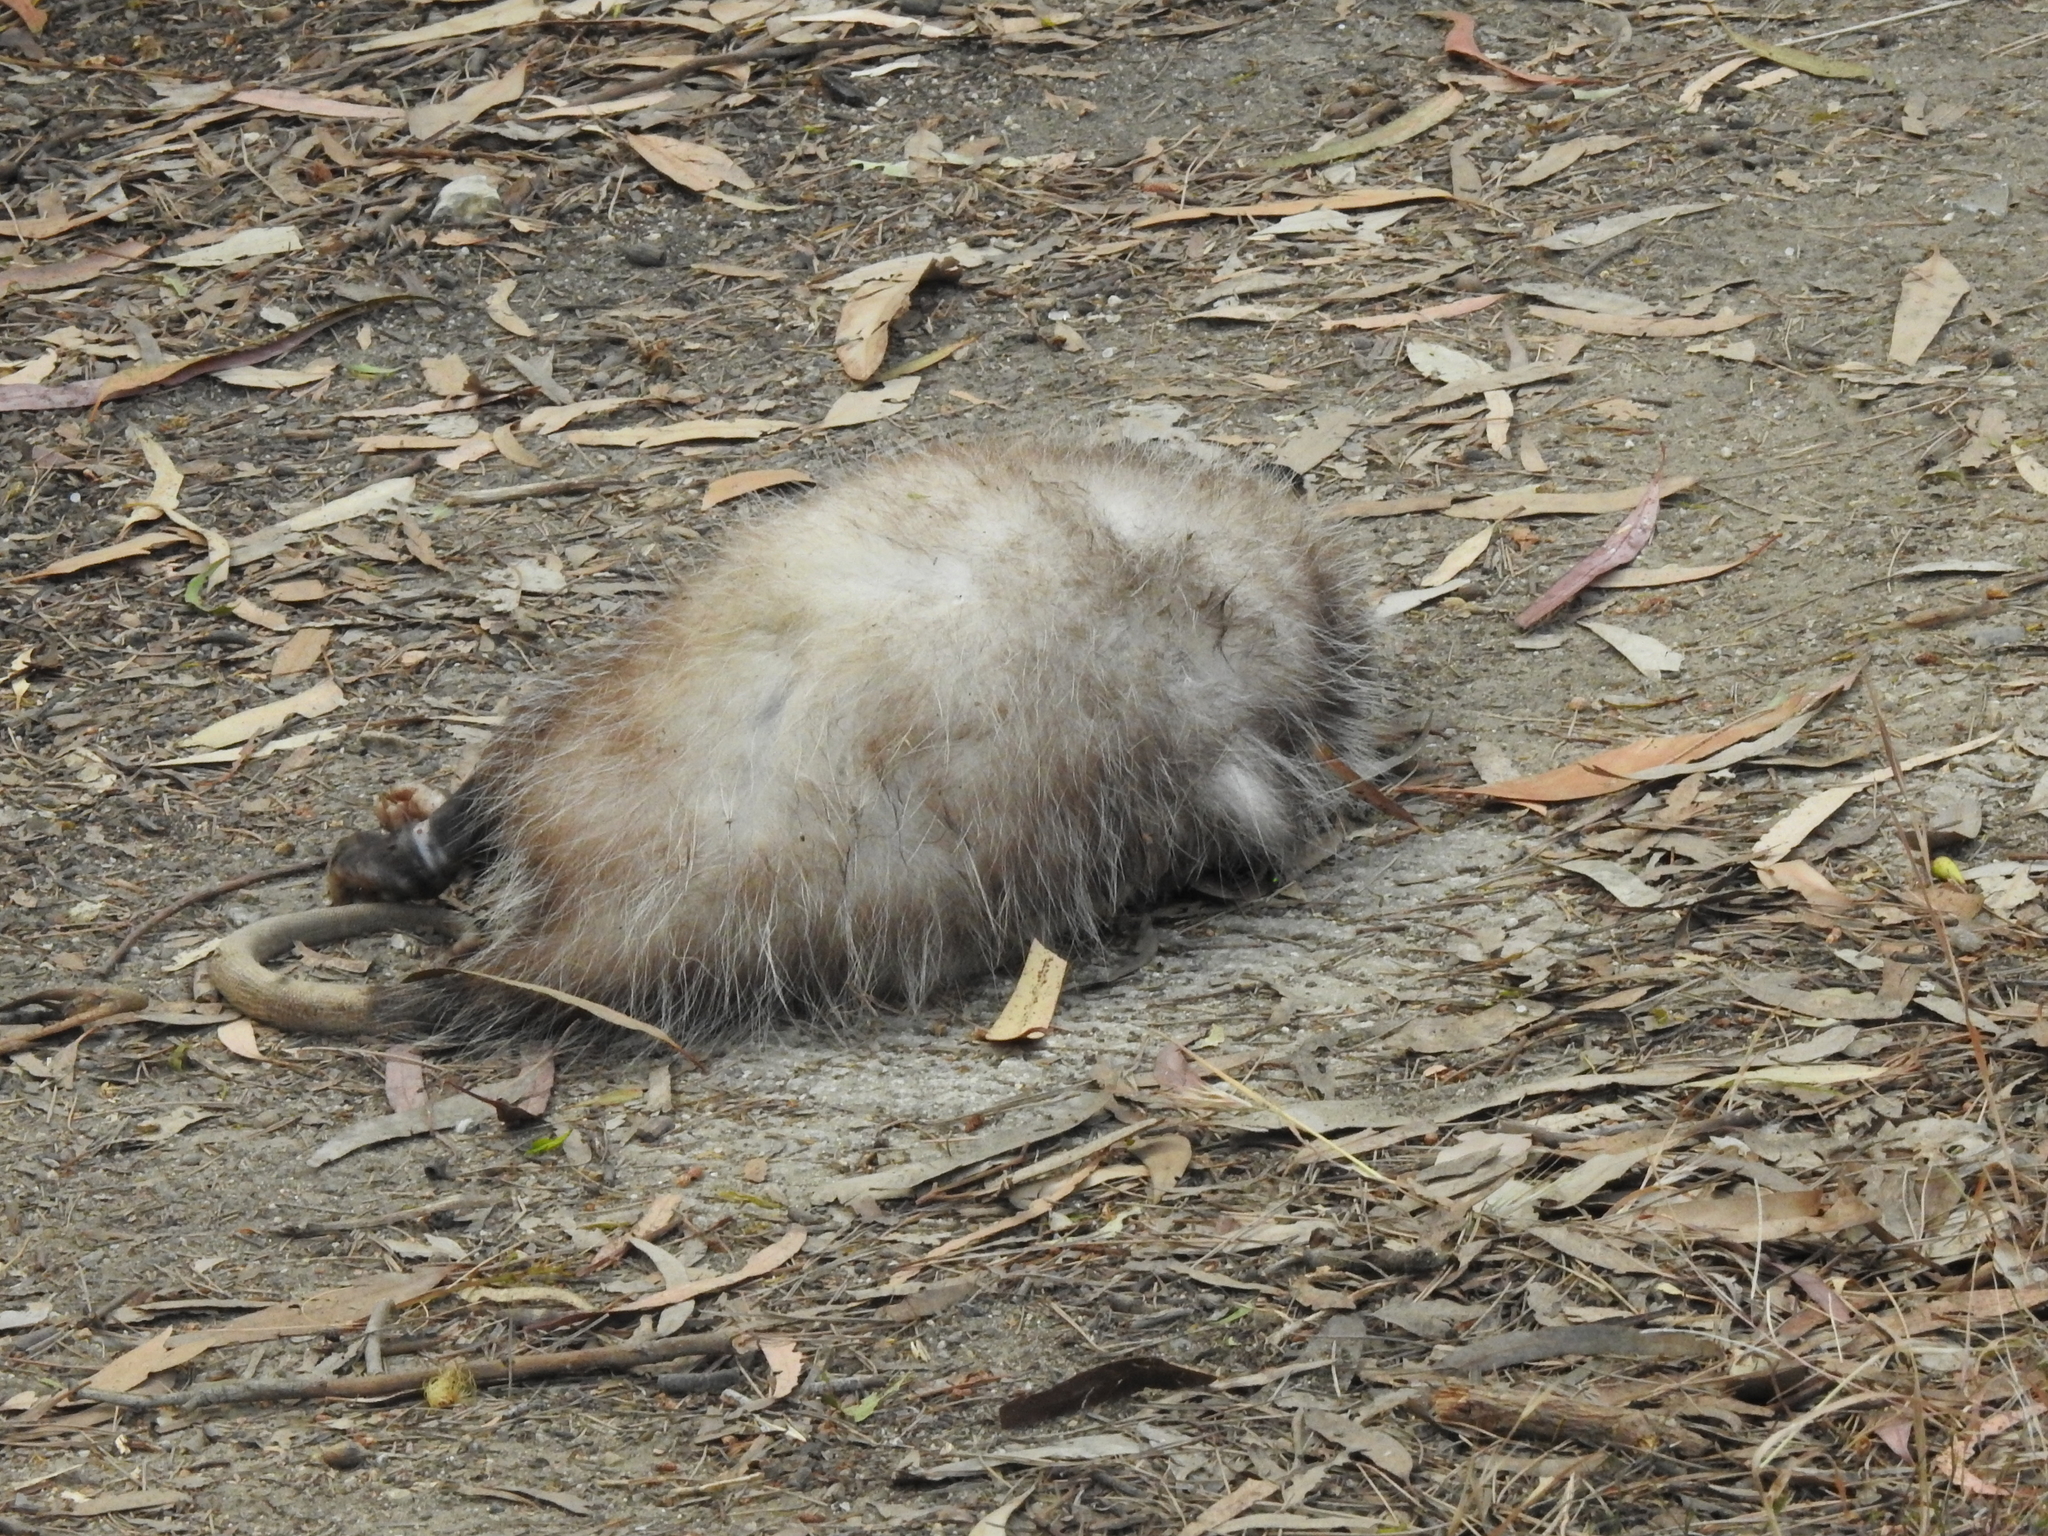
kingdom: Animalia
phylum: Chordata
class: Mammalia
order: Didelphimorphia
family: Didelphidae
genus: Didelphis
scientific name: Didelphis virginiana
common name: Virginia opossum
